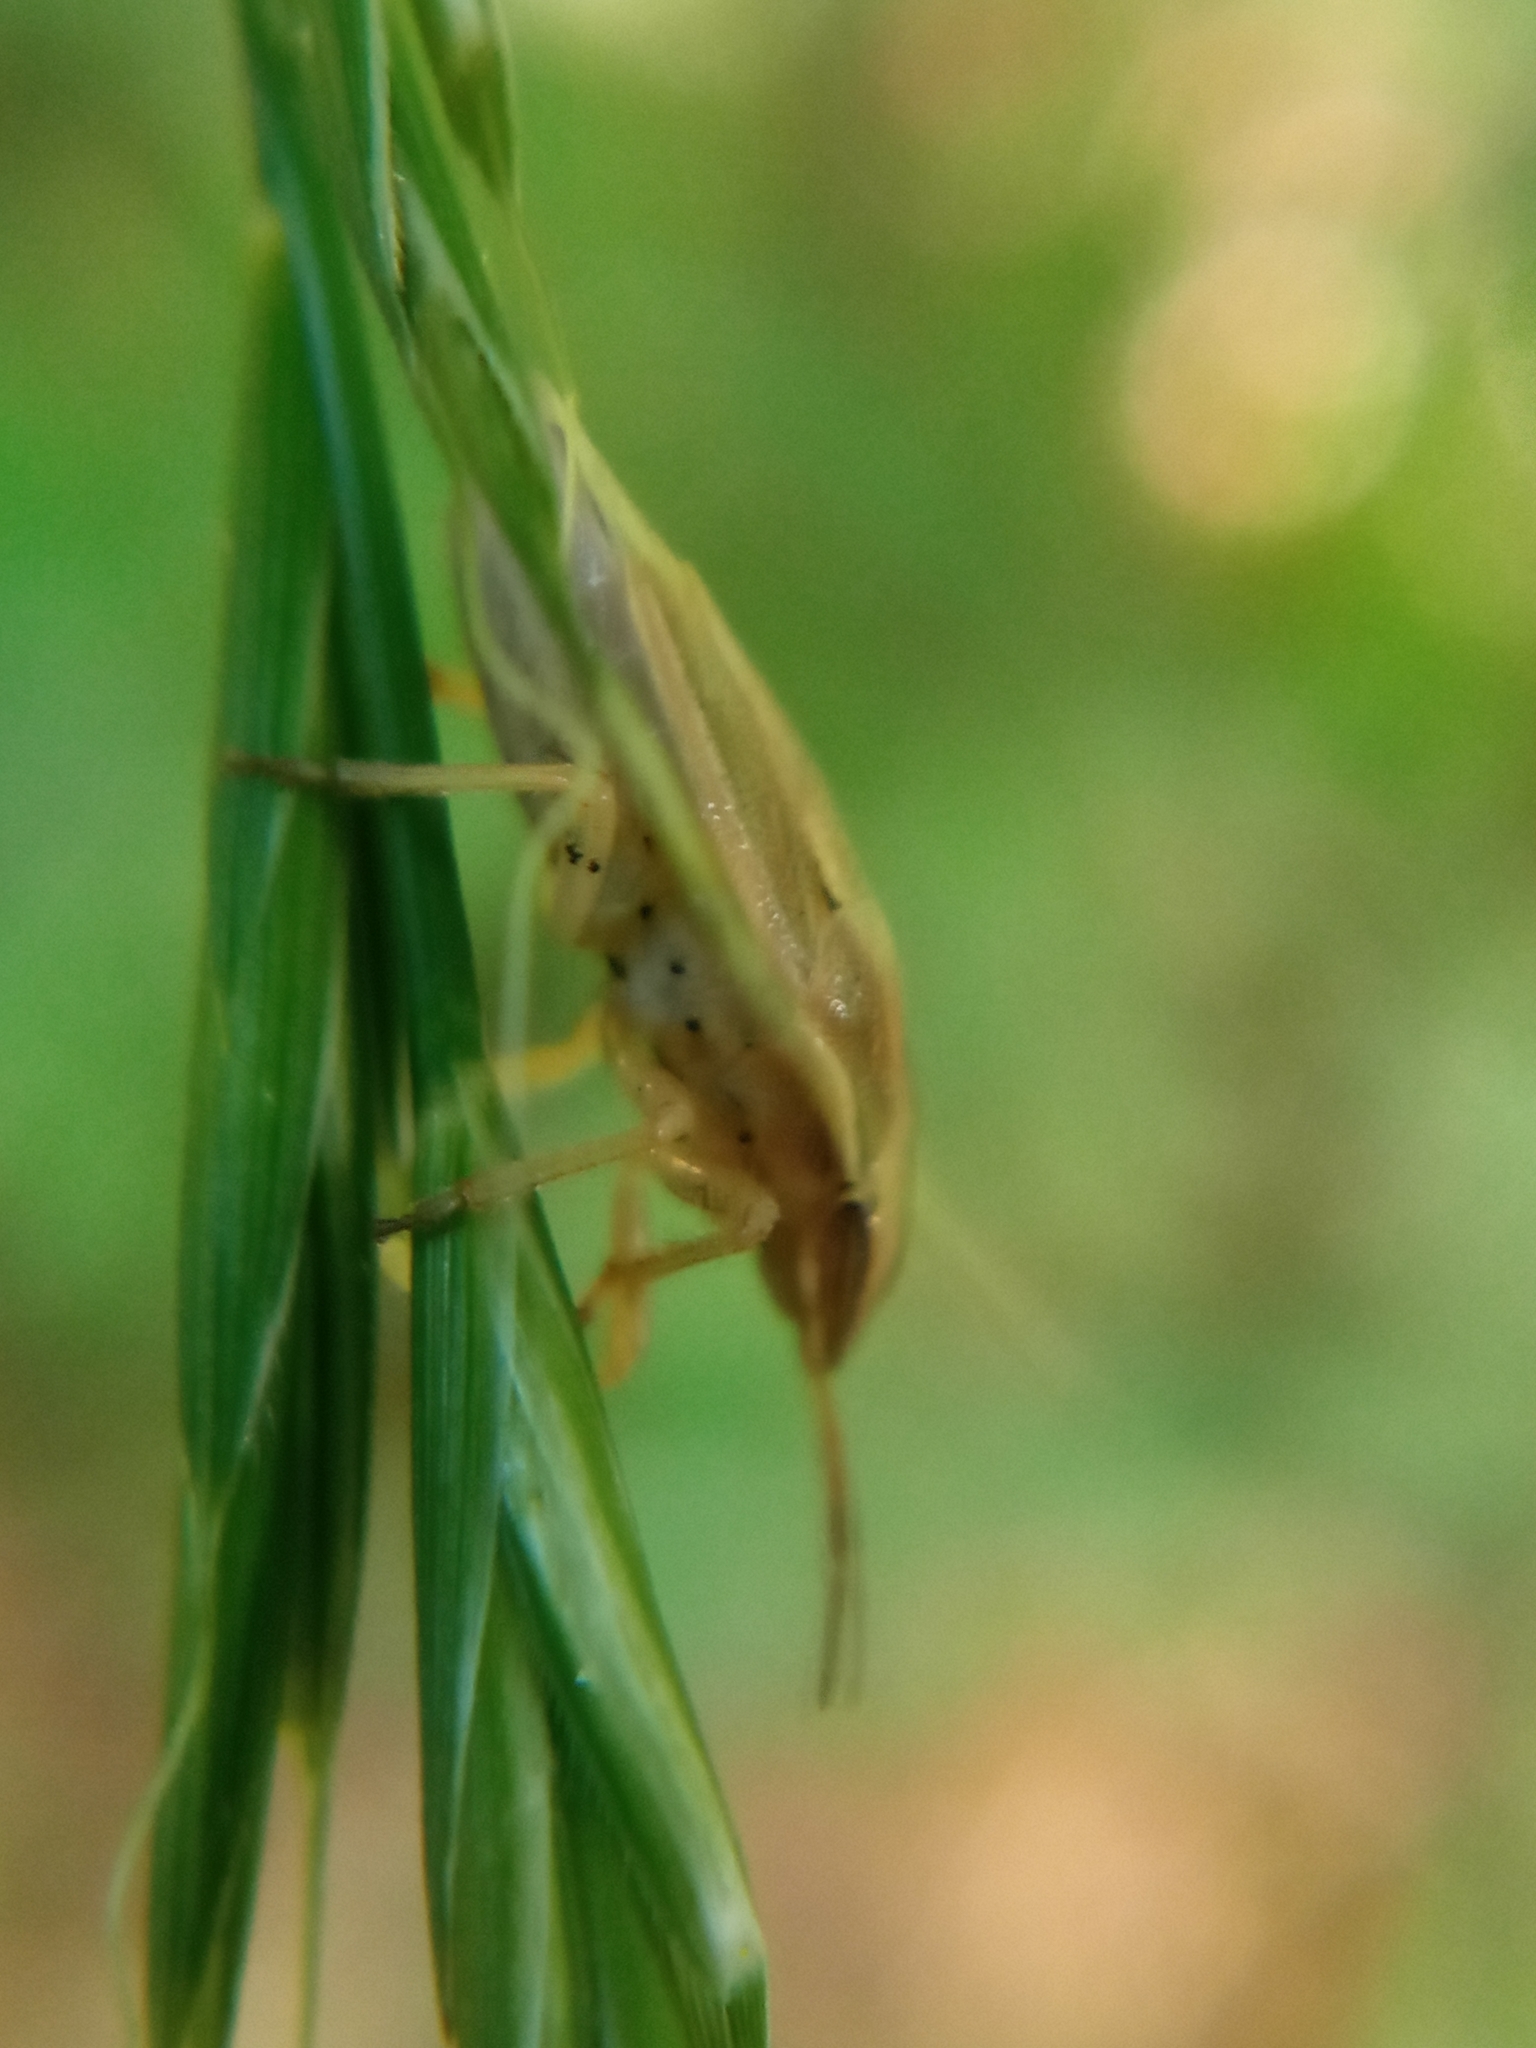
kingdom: Animalia
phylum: Arthropoda
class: Insecta
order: Hemiptera
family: Pentatomidae
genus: Aelia
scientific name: Aelia acuminata
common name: Bishop's mitre
